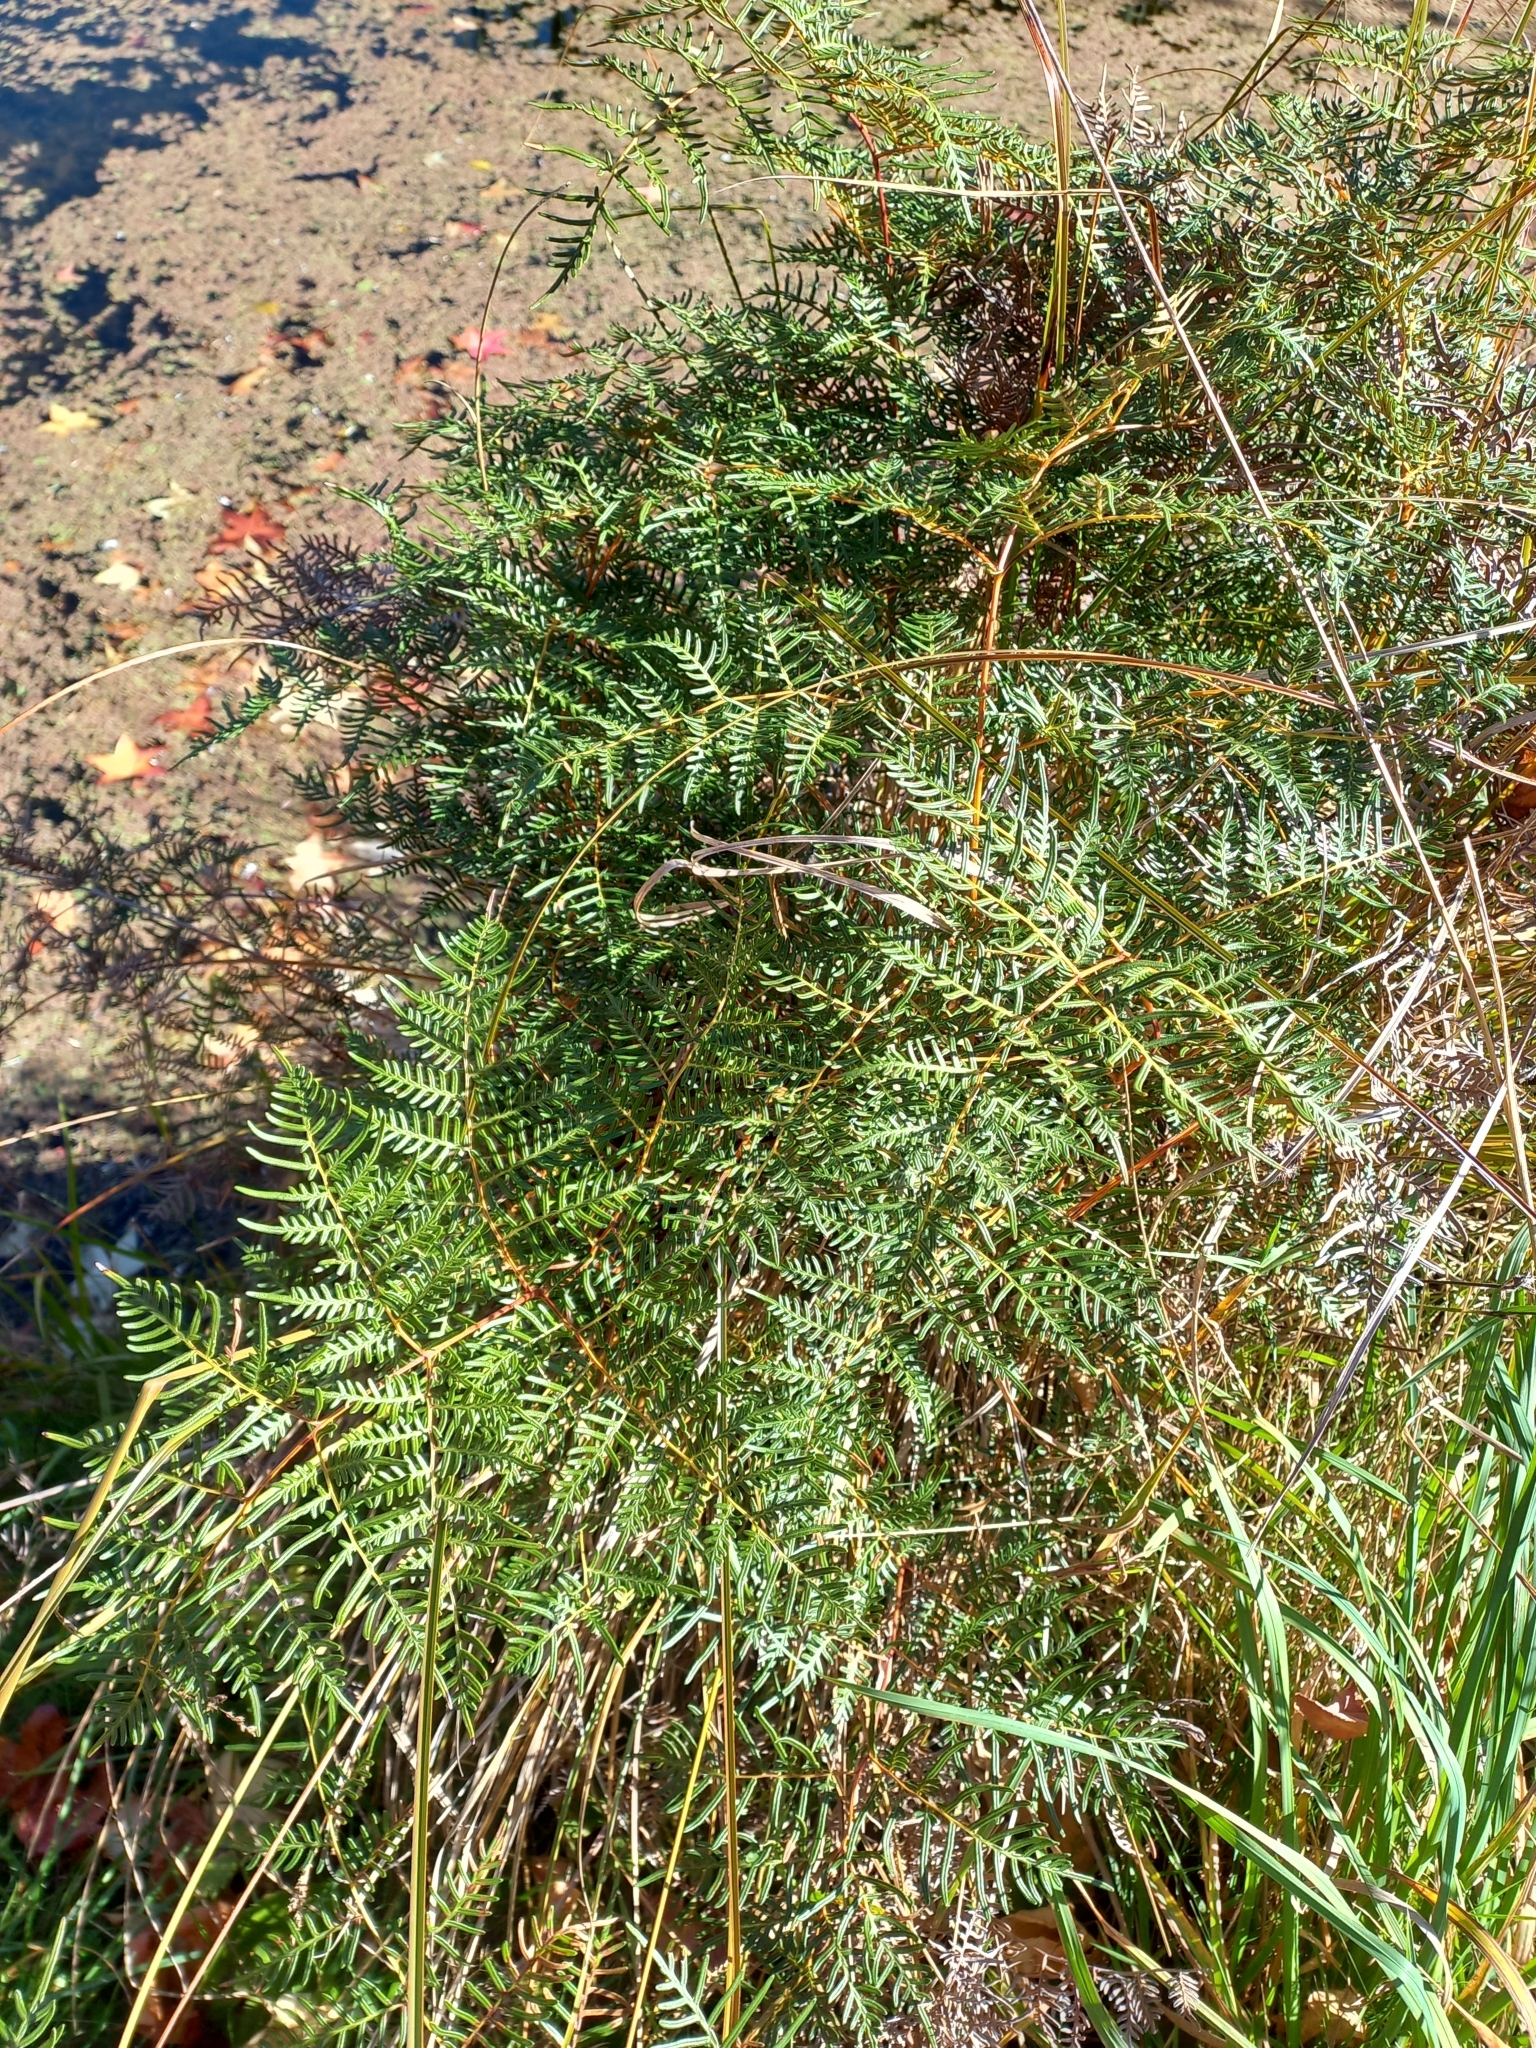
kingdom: Plantae
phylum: Tracheophyta
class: Polypodiopsida
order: Polypodiales
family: Dennstaedtiaceae
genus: Pteridium
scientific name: Pteridium esculentum
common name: Bracken fern
